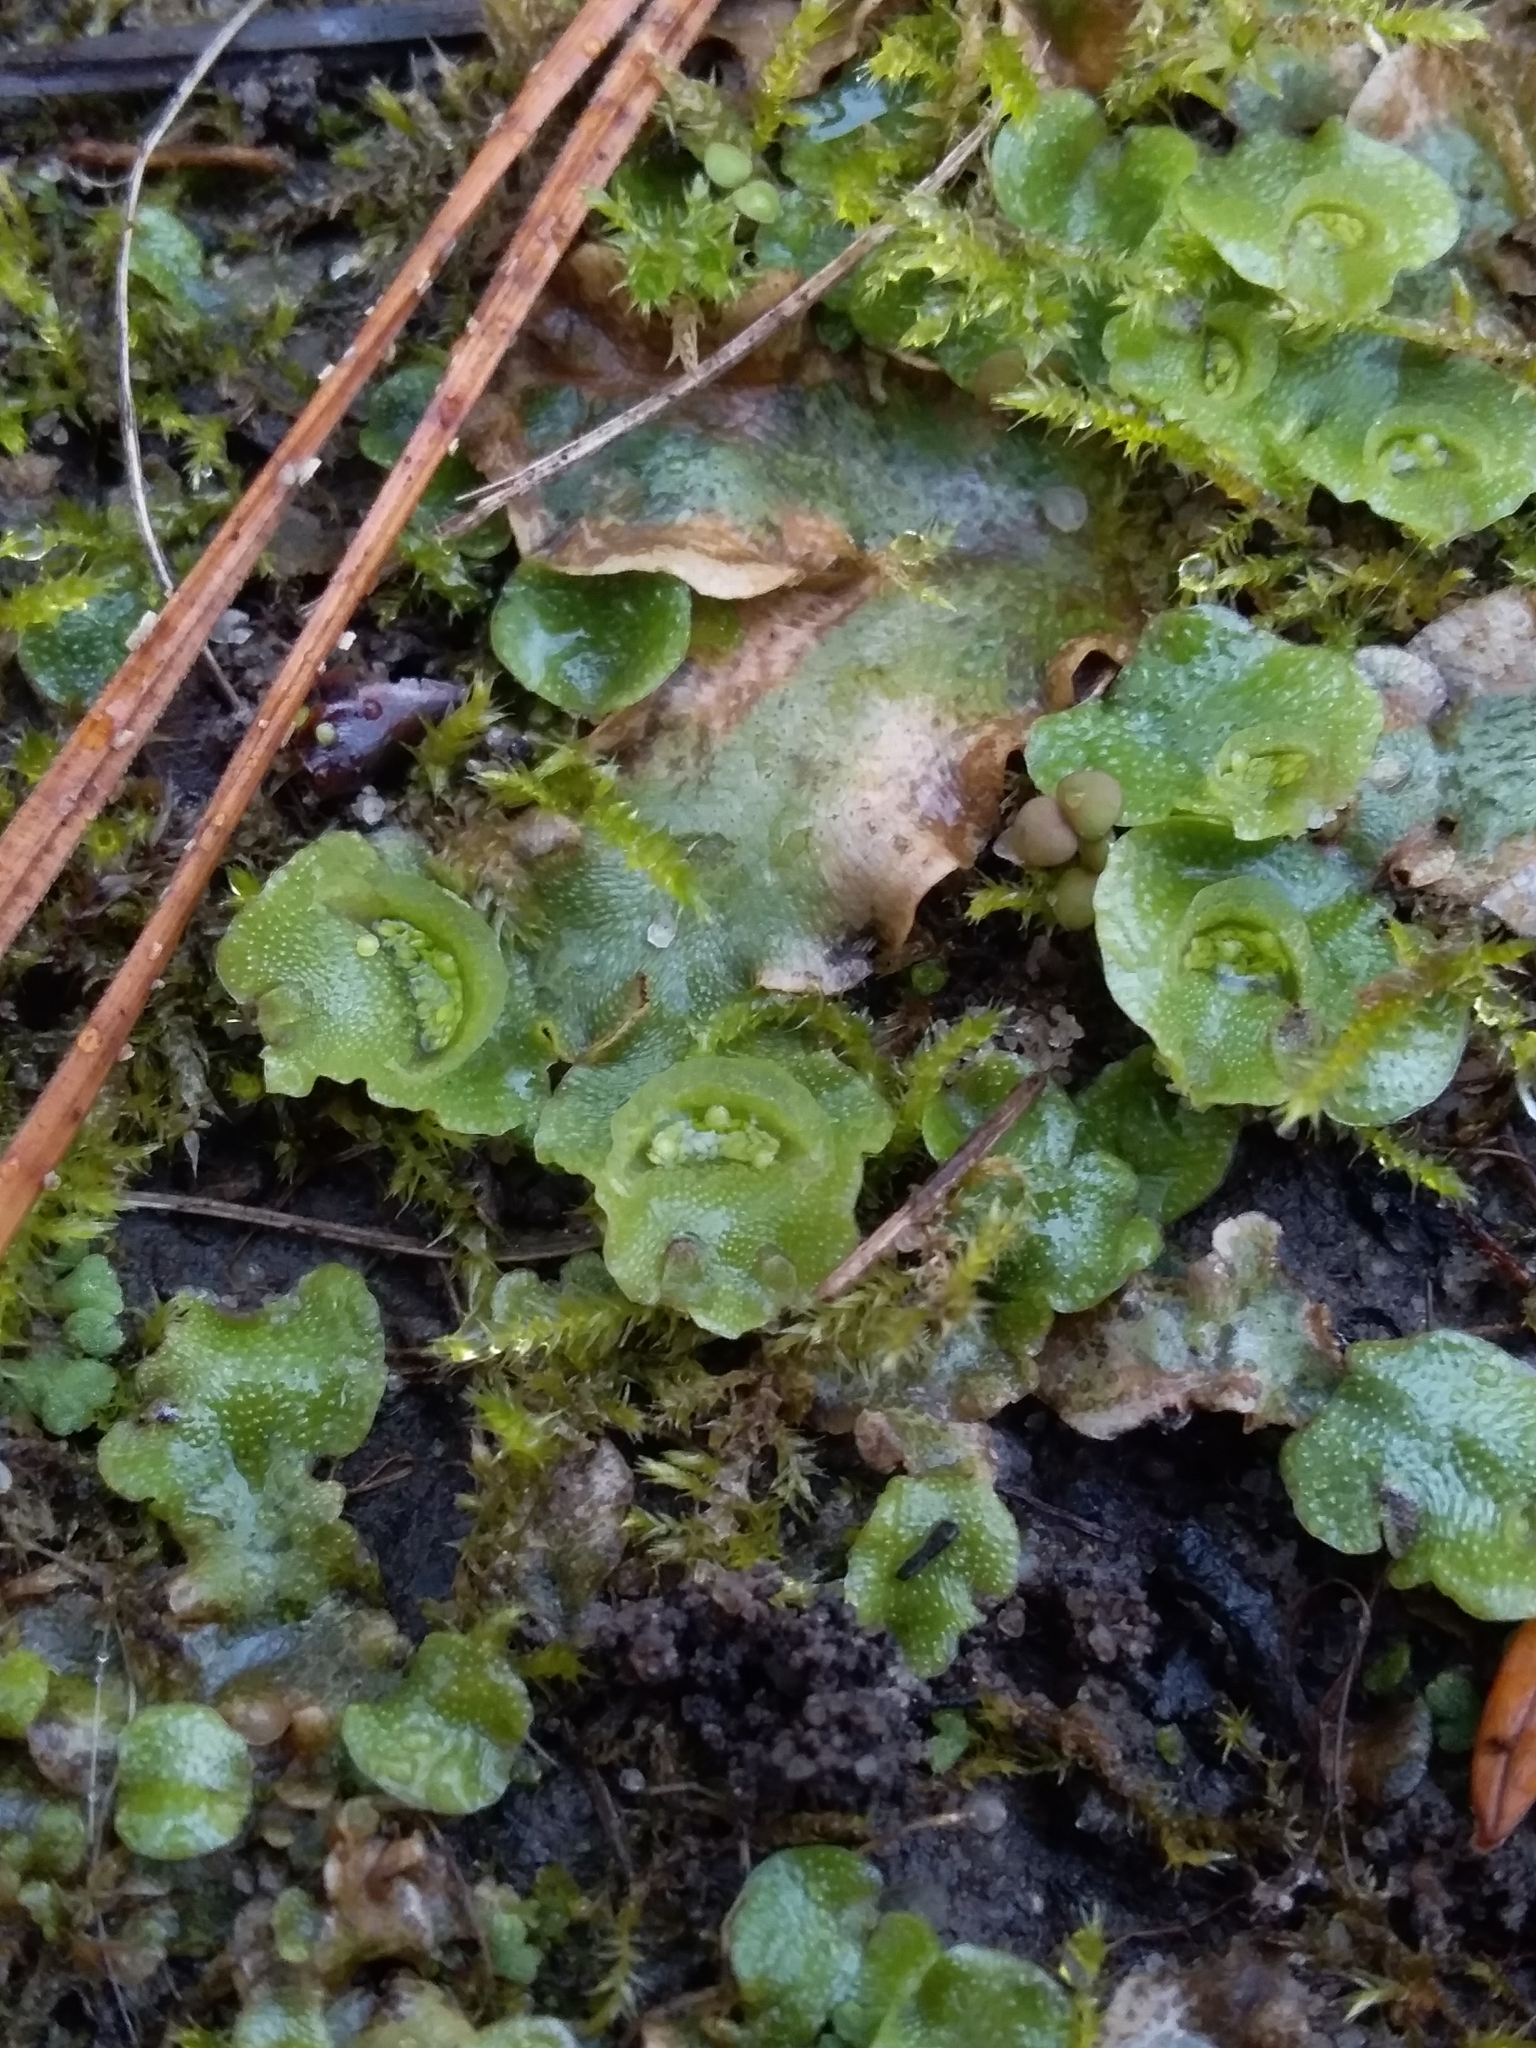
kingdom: Plantae
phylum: Marchantiophyta
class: Marchantiopsida
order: Lunulariales
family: Lunulariaceae
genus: Lunularia
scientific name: Lunularia cruciata
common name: Crescent-cup liverwort
